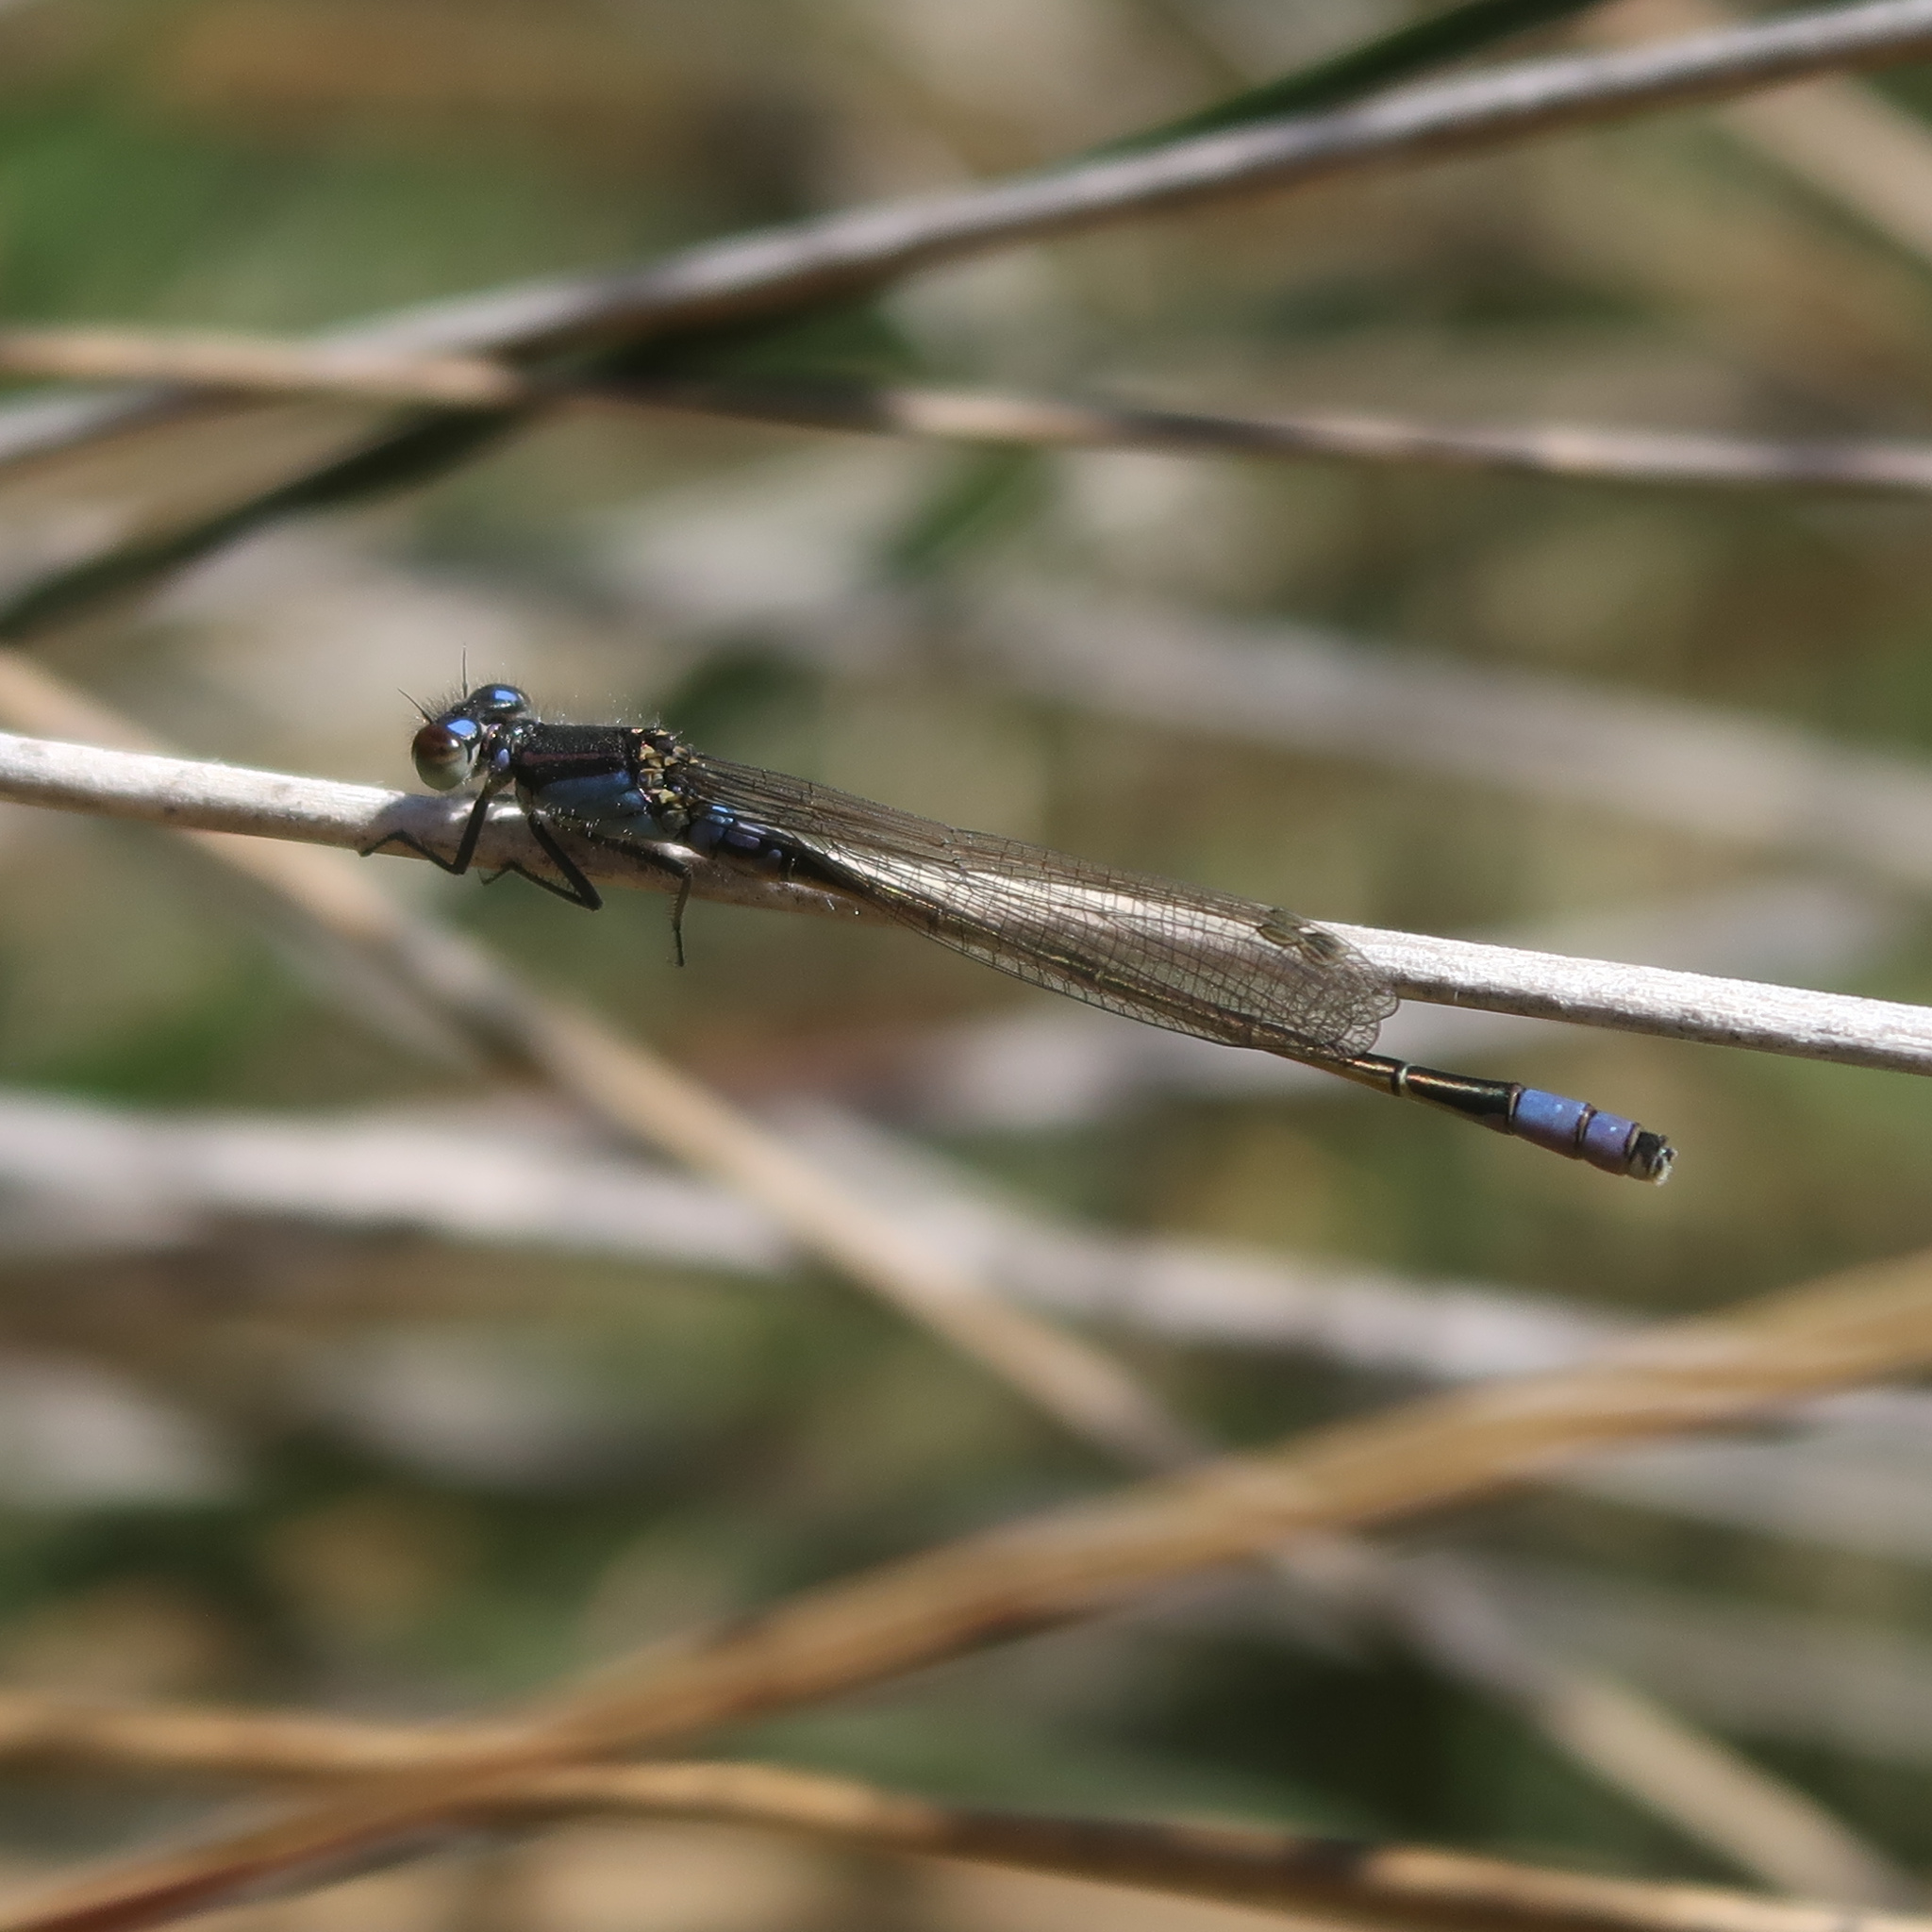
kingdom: Animalia
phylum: Arthropoda
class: Insecta
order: Odonata
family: Coenagrionidae
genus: Ischnura
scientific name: Ischnura heterosticta
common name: Common bluetail
